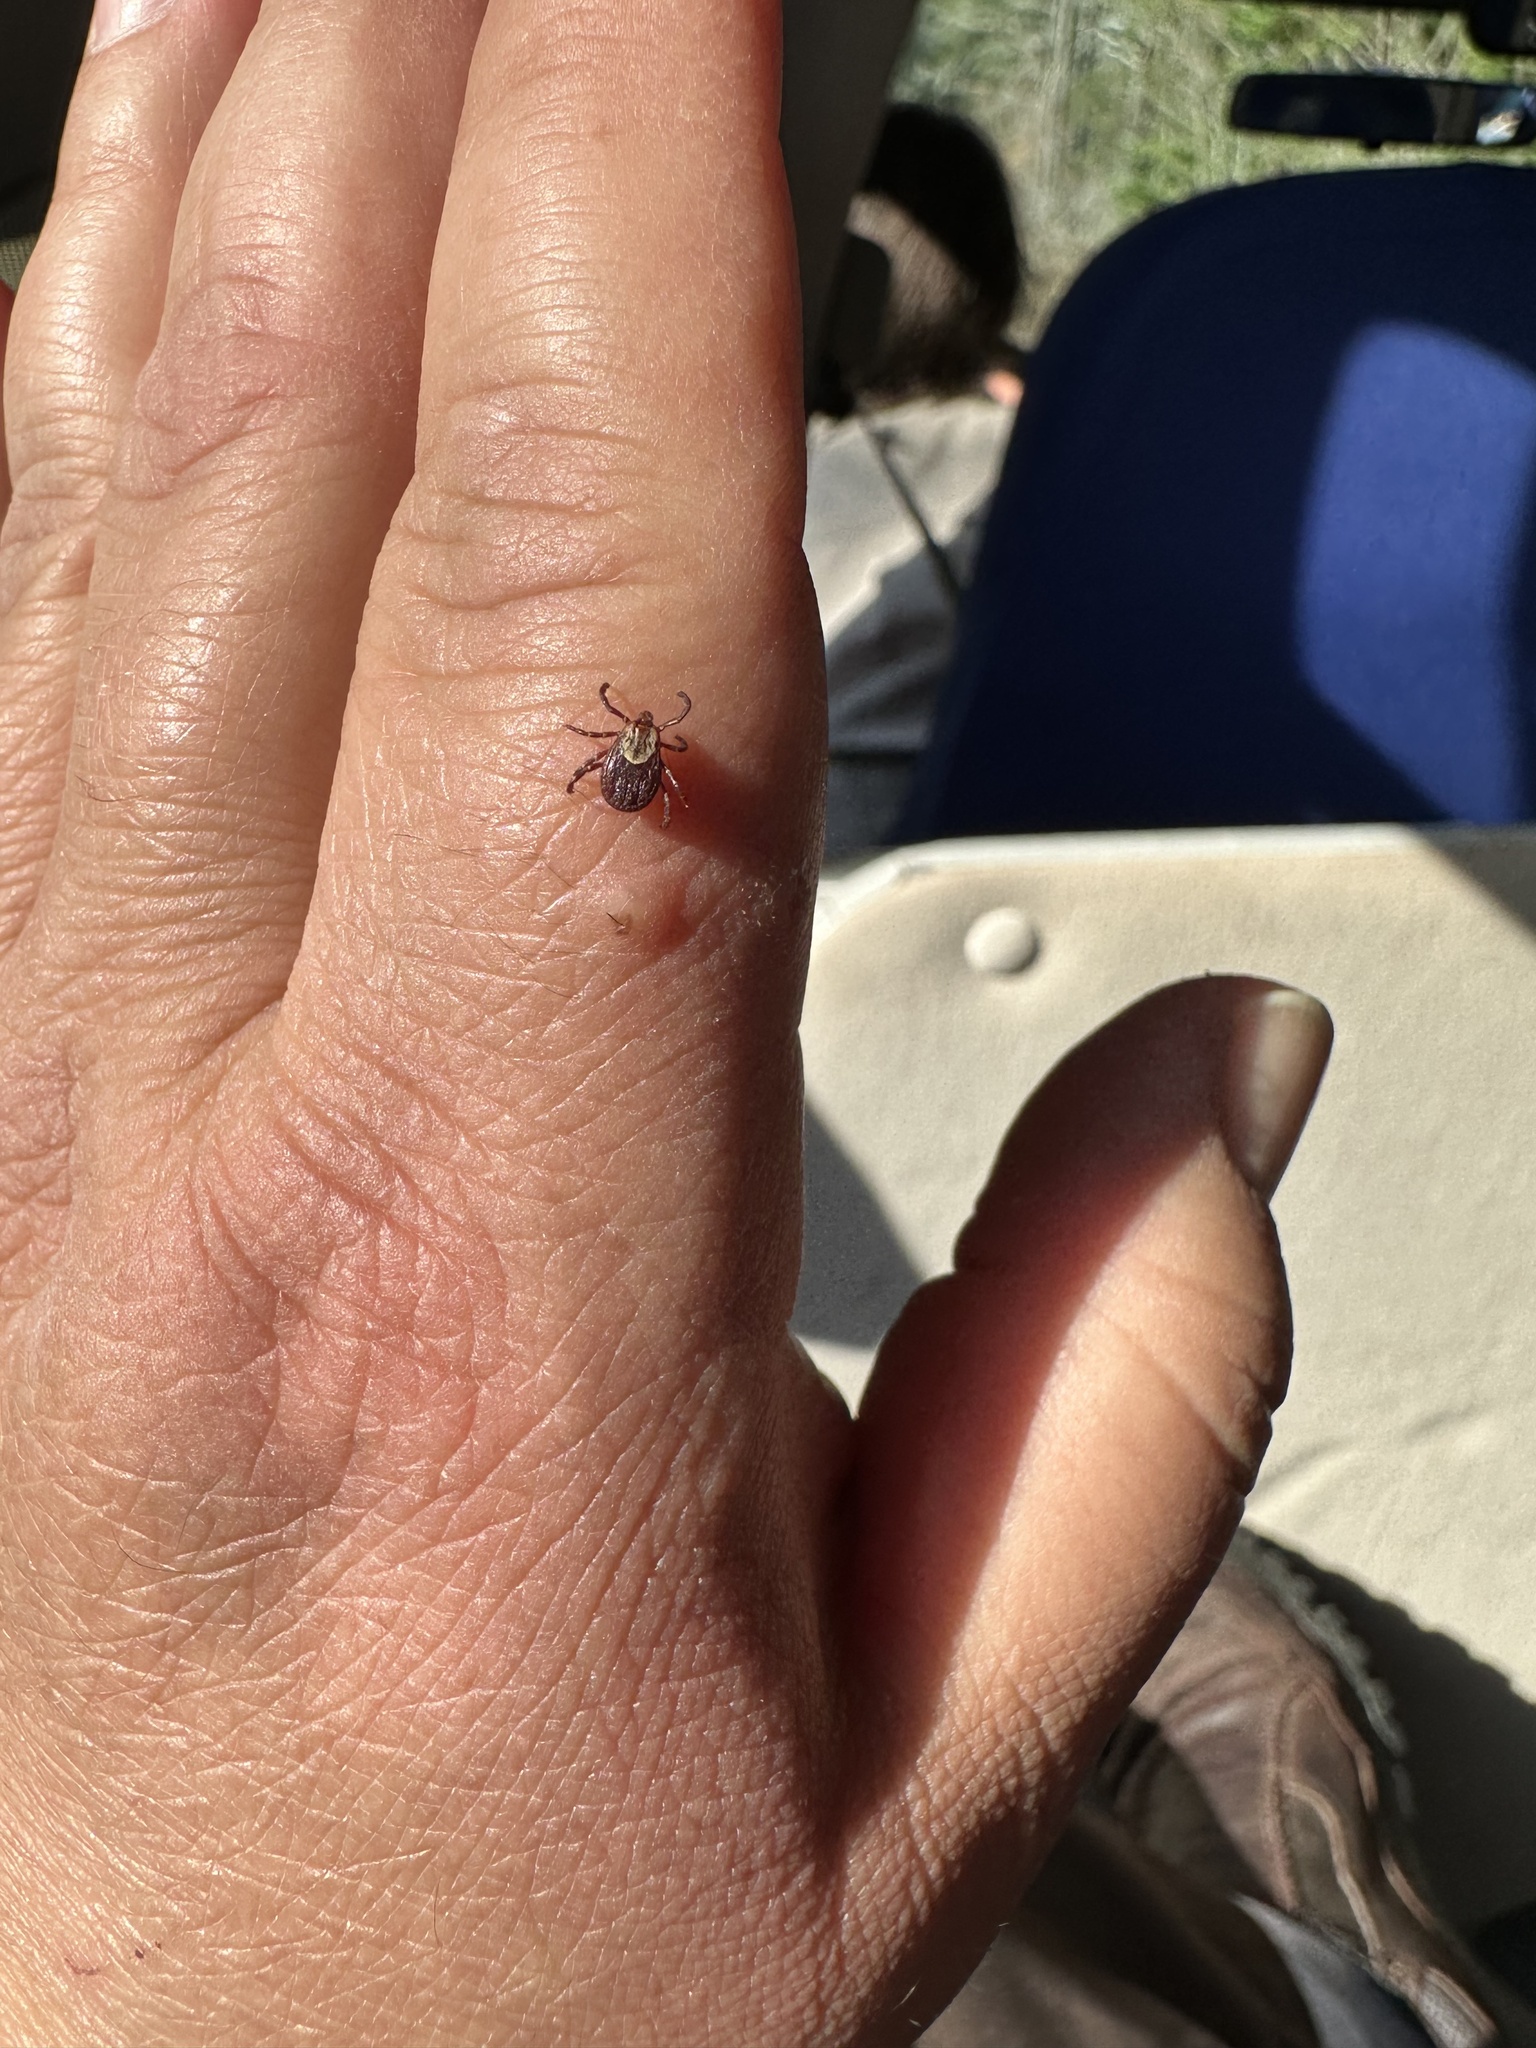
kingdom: Animalia
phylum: Arthropoda
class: Arachnida
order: Ixodida
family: Ixodidae
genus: Dermacentor
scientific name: Dermacentor variabilis
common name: American dog tick
